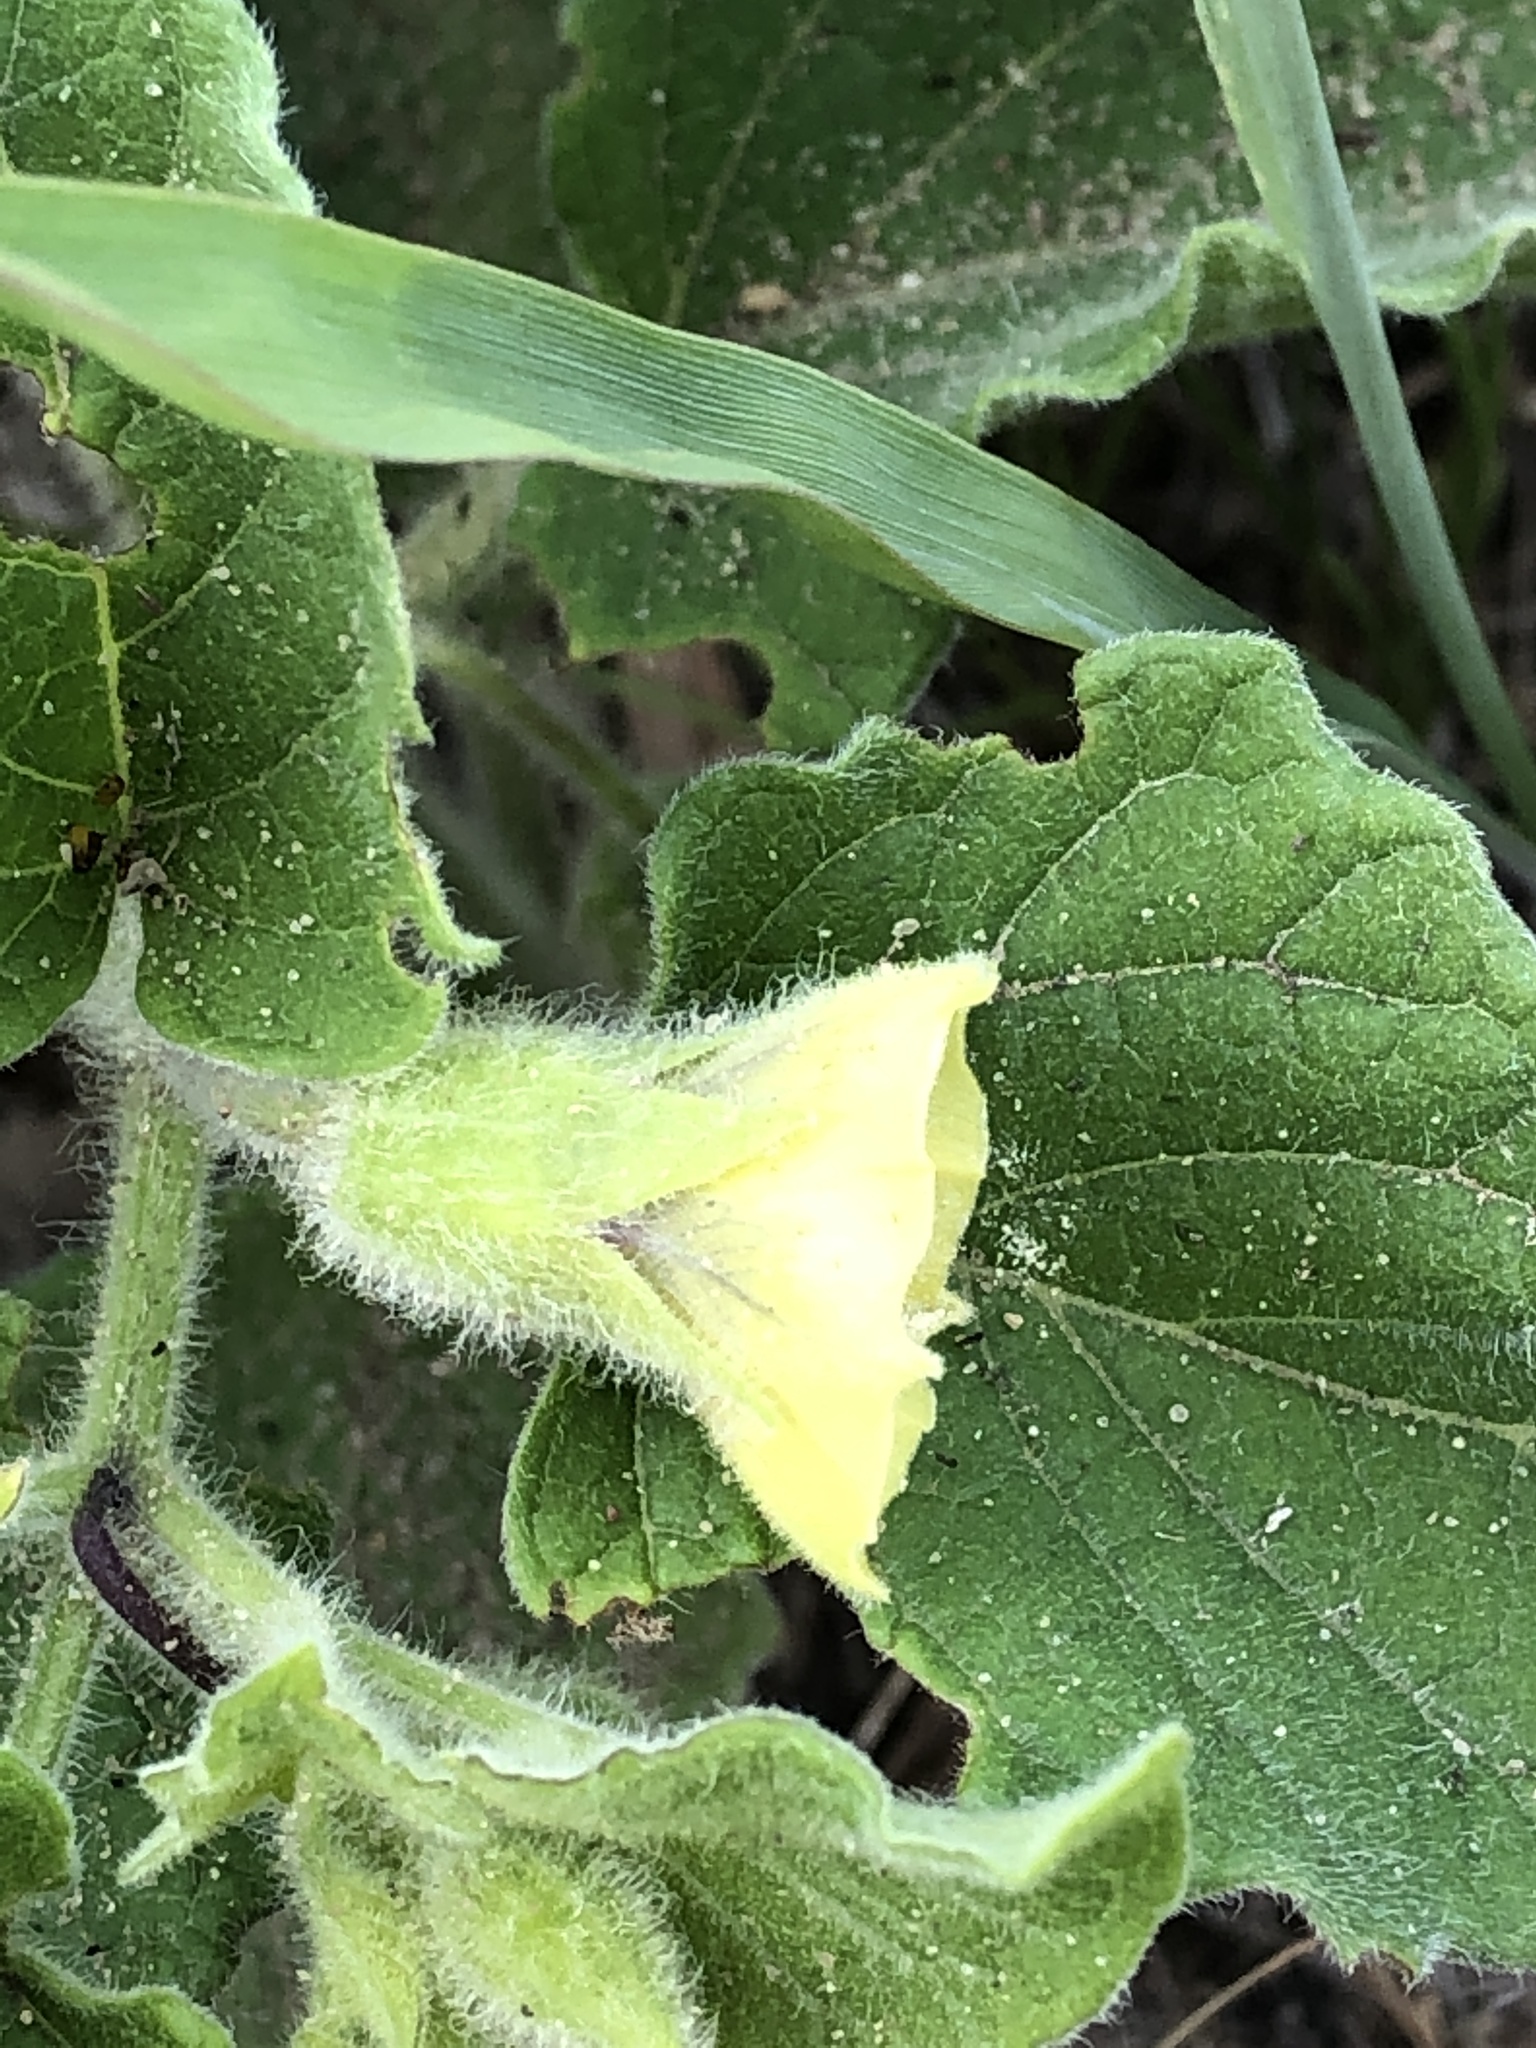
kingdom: Plantae
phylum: Tracheophyta
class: Magnoliopsida
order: Solanales
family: Solanaceae
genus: Physalis
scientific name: Physalis heterophylla
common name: Clammy ground-cherry
